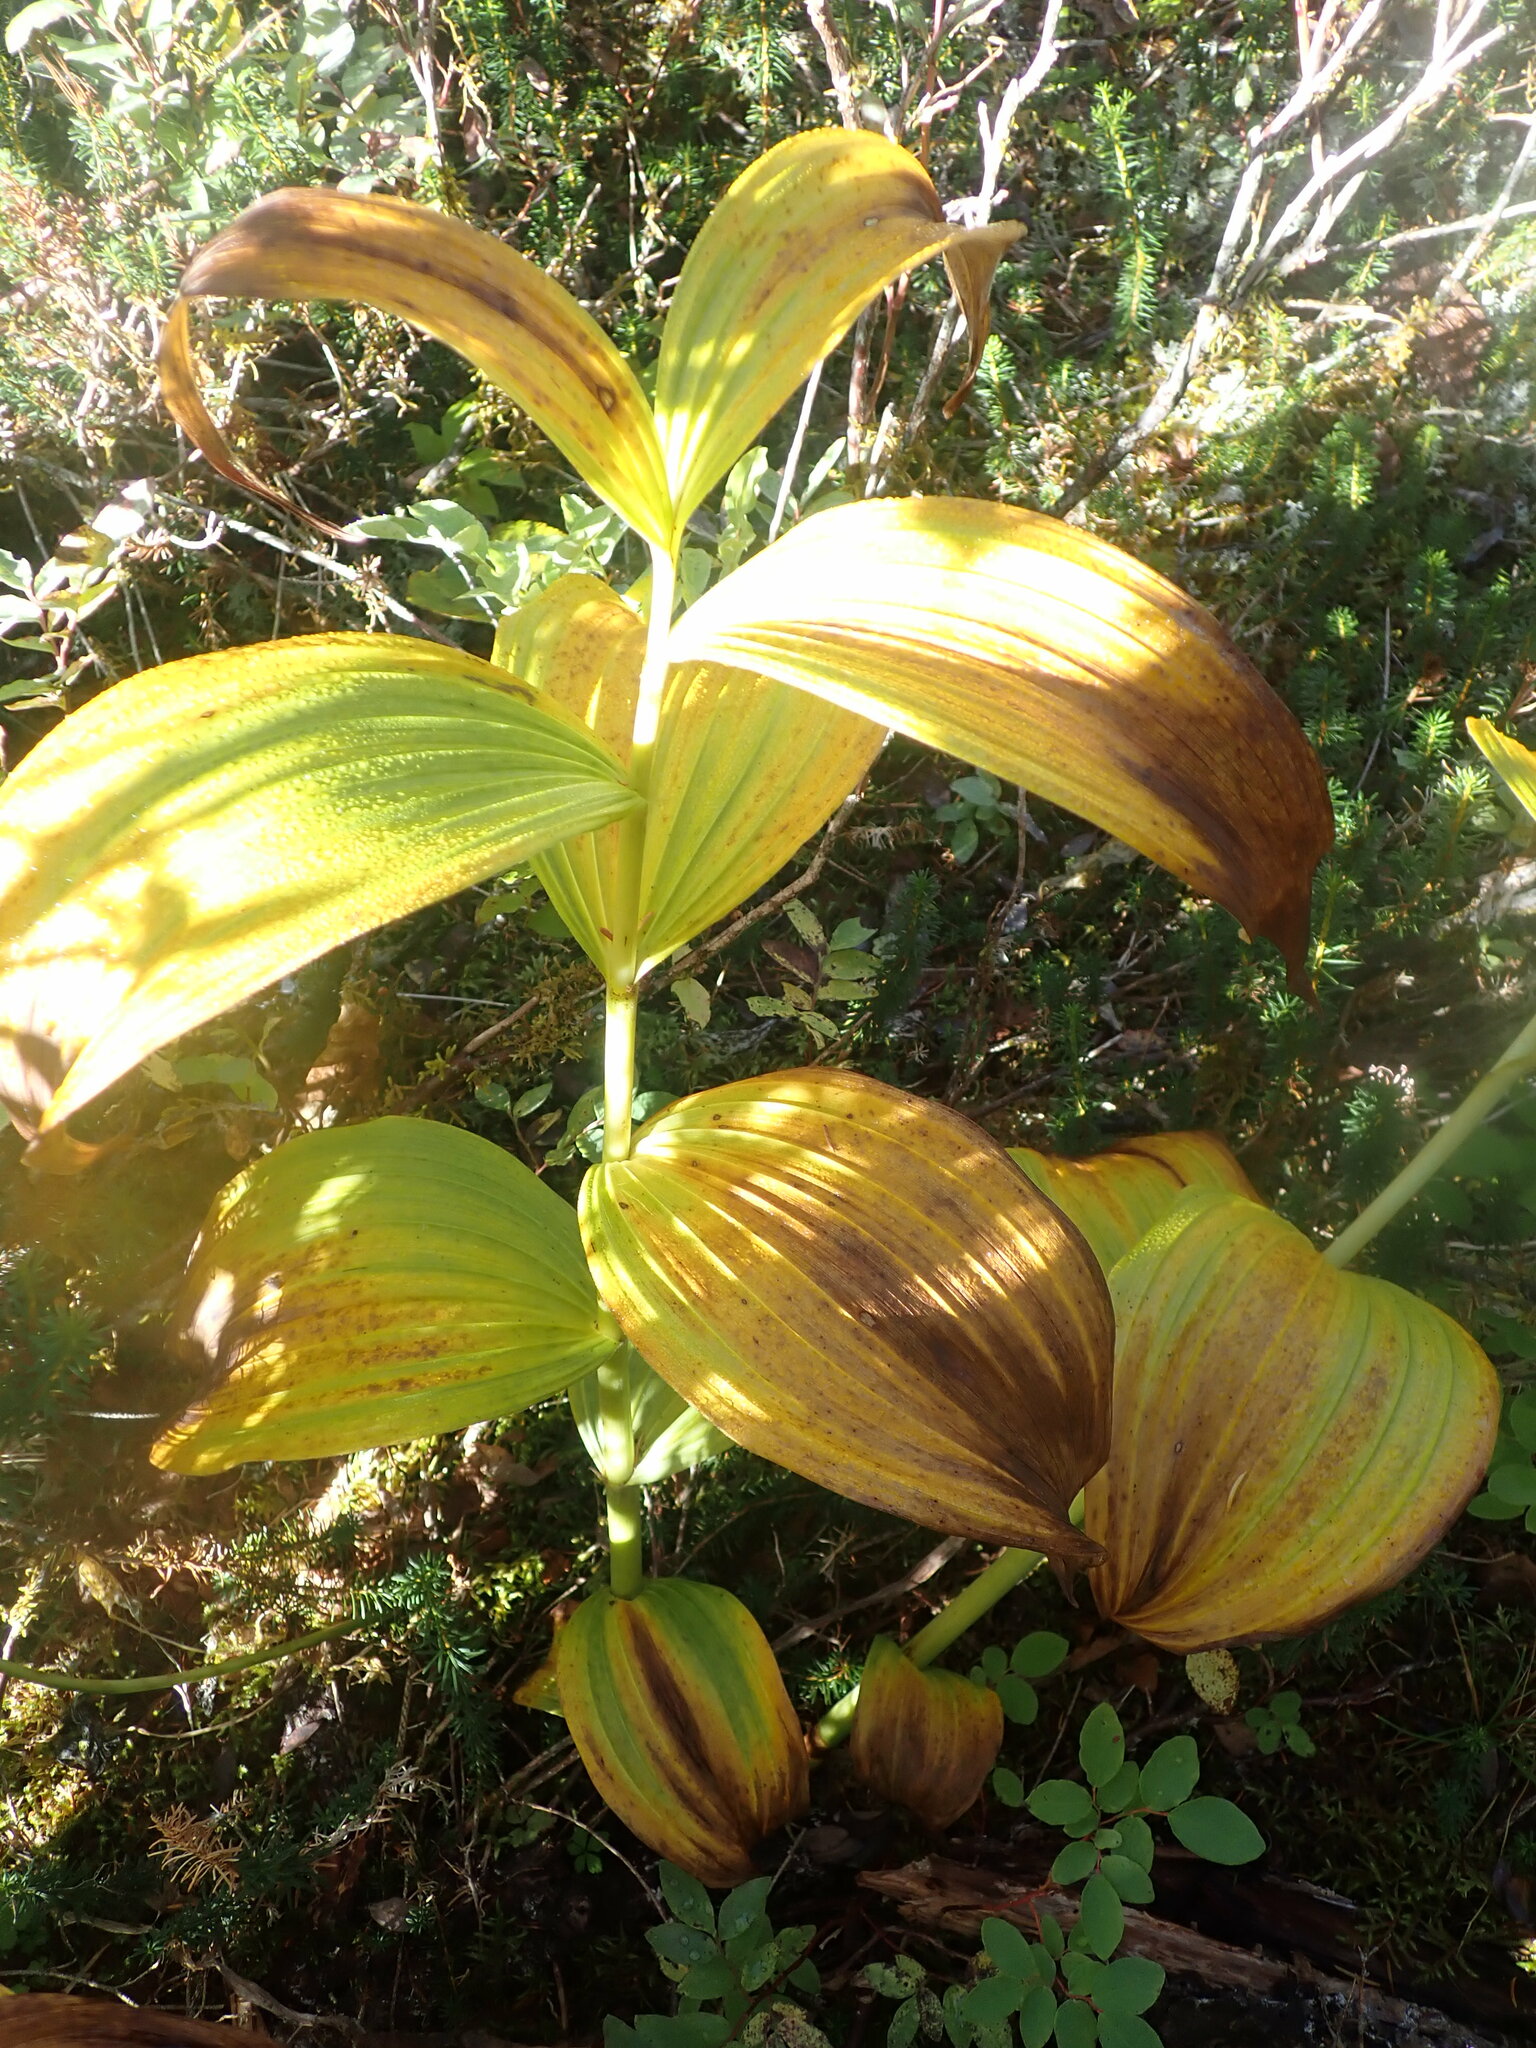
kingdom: Plantae
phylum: Tracheophyta
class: Liliopsida
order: Liliales
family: Melanthiaceae
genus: Veratrum
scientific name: Veratrum viride
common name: American false hellebore
